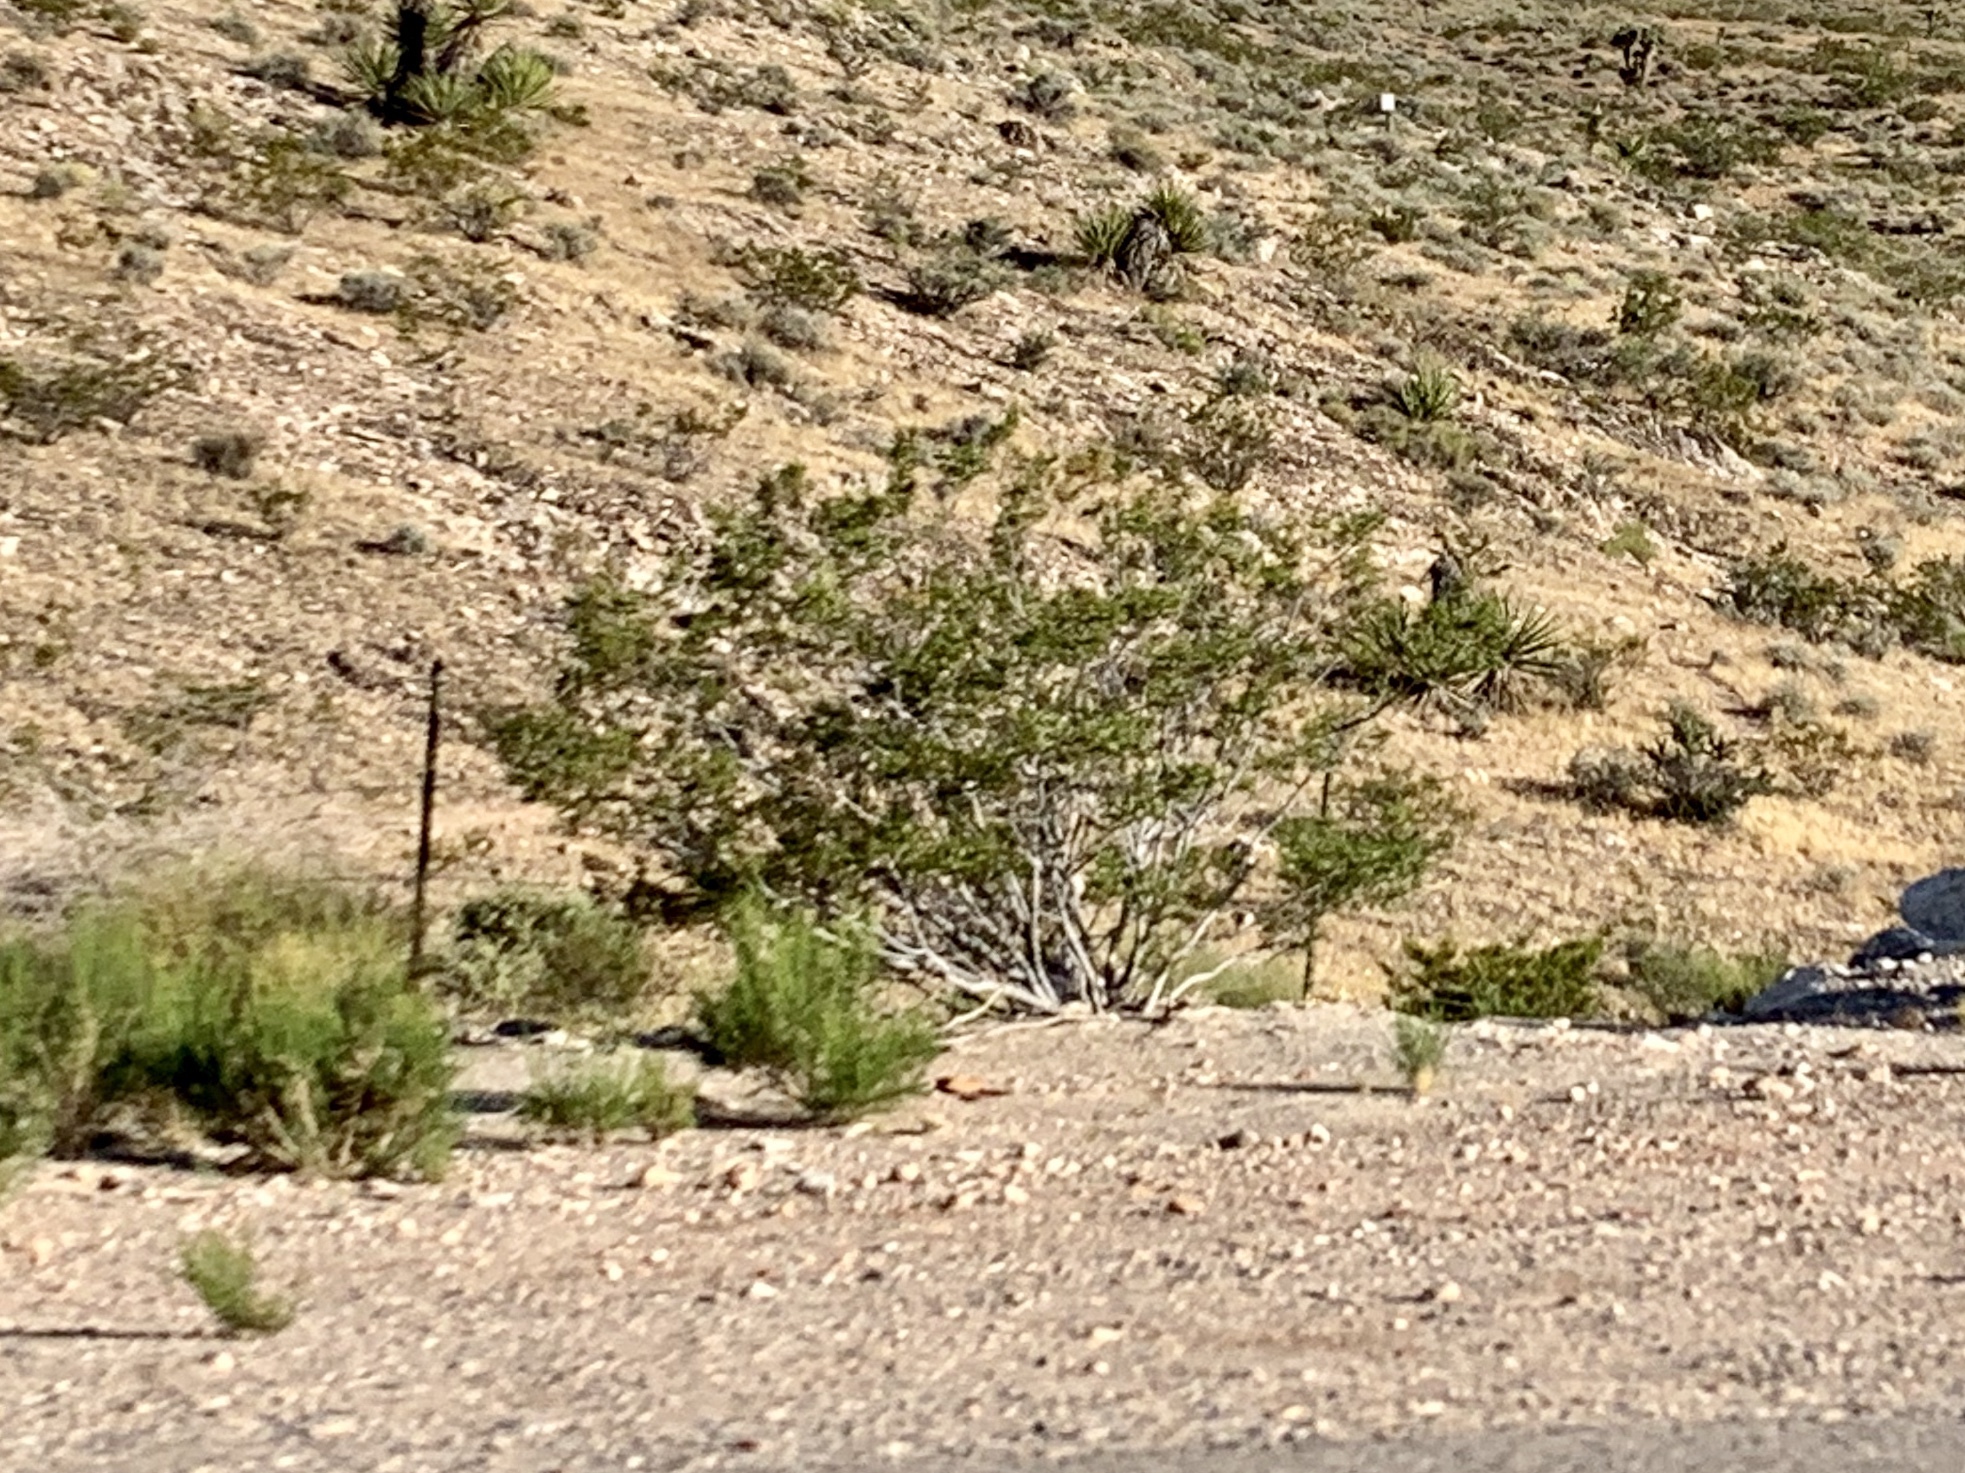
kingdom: Plantae
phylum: Tracheophyta
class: Magnoliopsida
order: Zygophyllales
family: Zygophyllaceae
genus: Larrea
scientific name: Larrea tridentata
